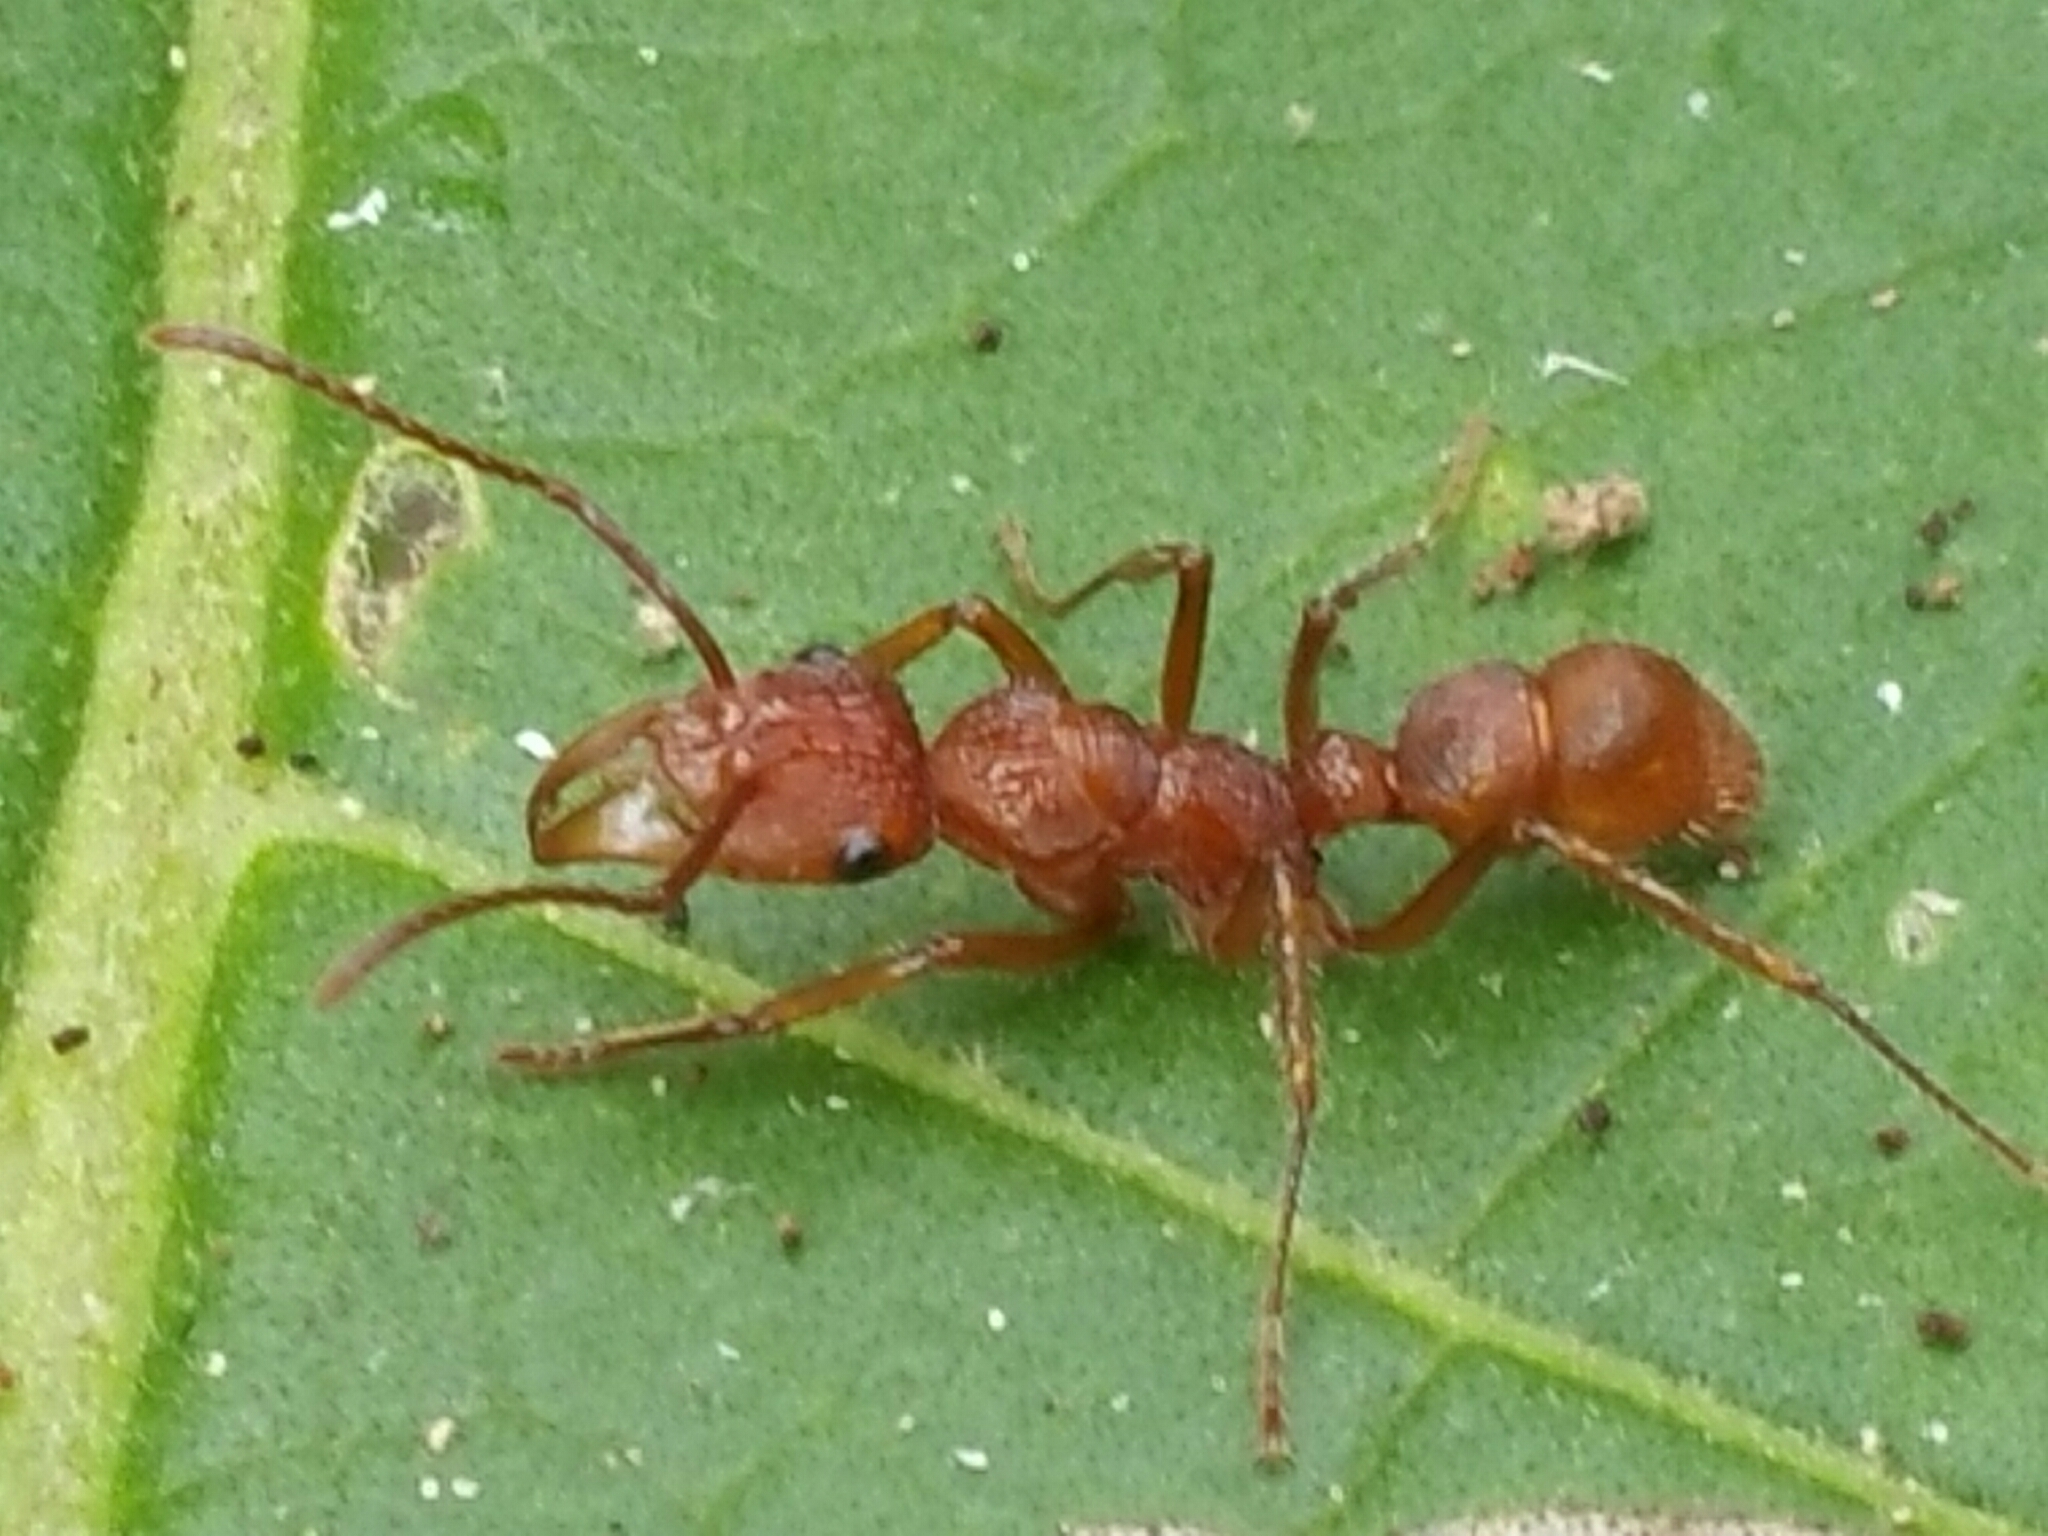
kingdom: Animalia
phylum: Arthropoda
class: Insecta
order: Hymenoptera
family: Formicidae
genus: Ectatomma
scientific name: Ectatomma tuberculatum
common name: Ant
